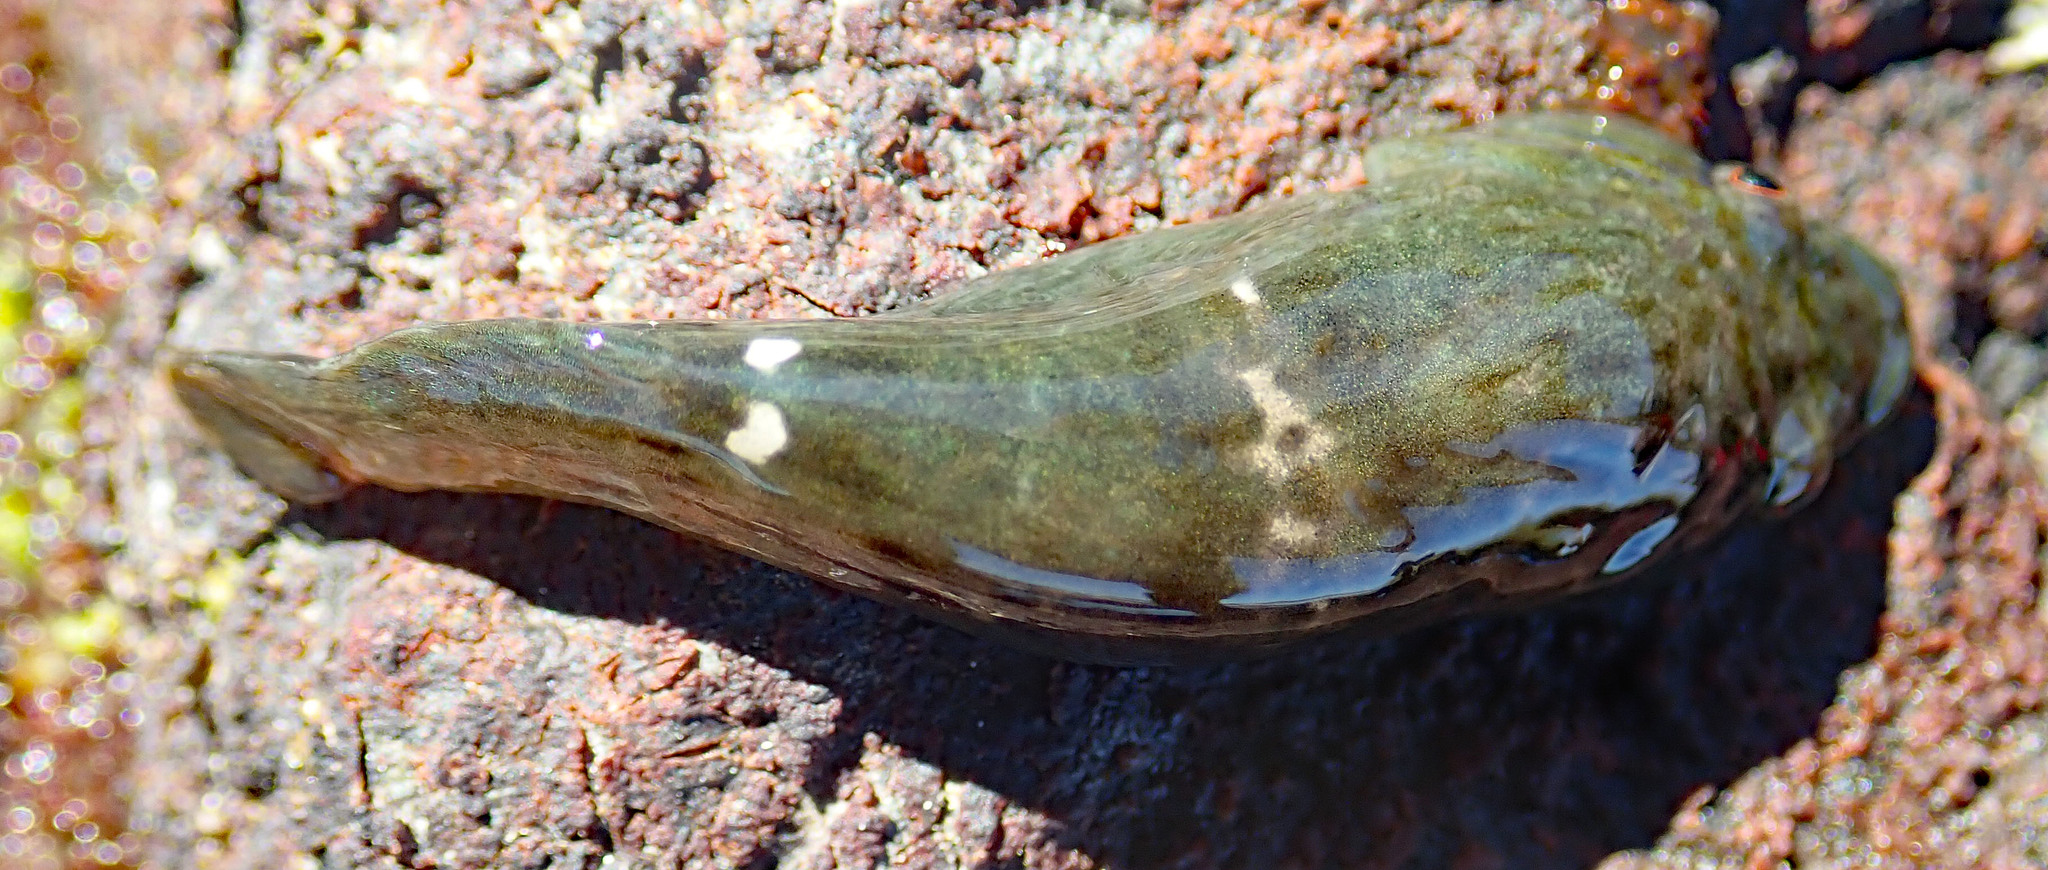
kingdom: Animalia
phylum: Chordata
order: Gobiesociformes
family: Gobiesocidae
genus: Trachelochismus
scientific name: Trachelochismus pinnulatus
